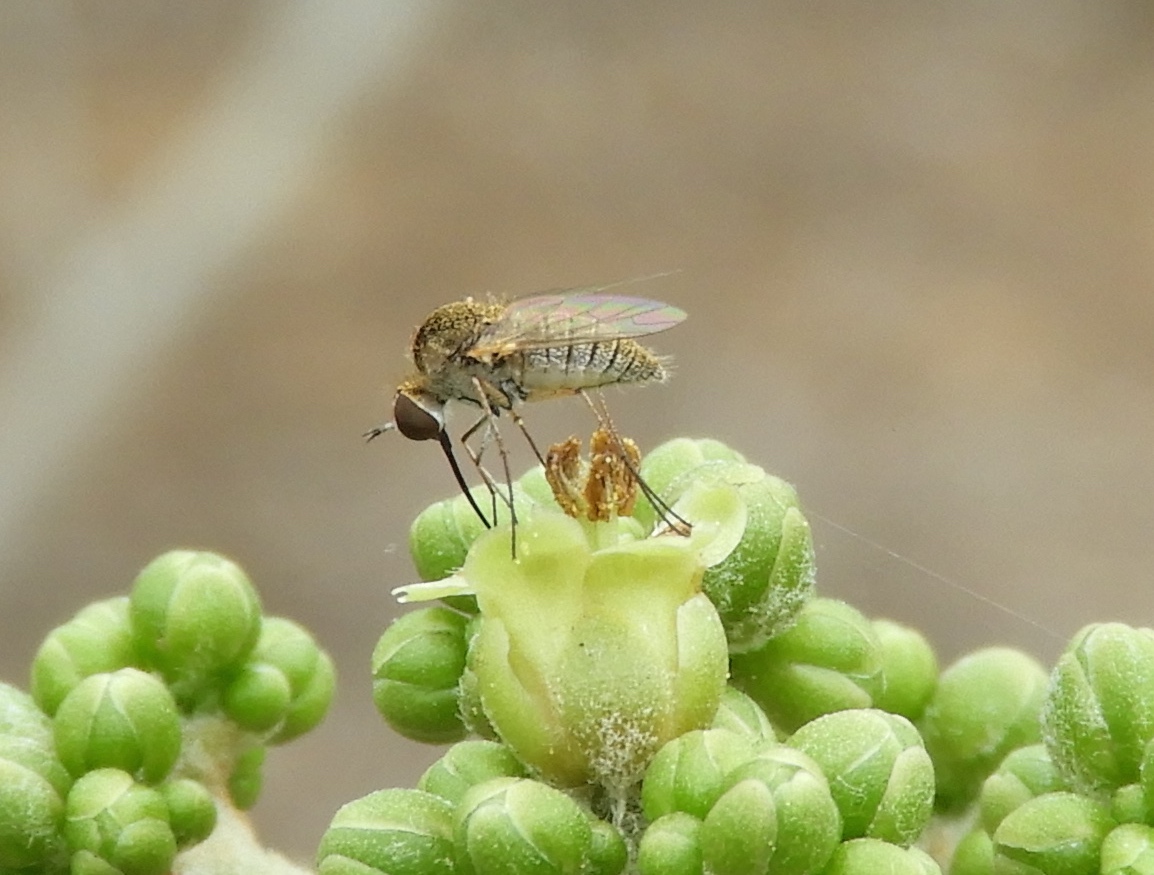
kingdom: Animalia
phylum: Arthropoda
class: Insecta
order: Diptera
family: Bombyliidae
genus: Geron
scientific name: Geron
